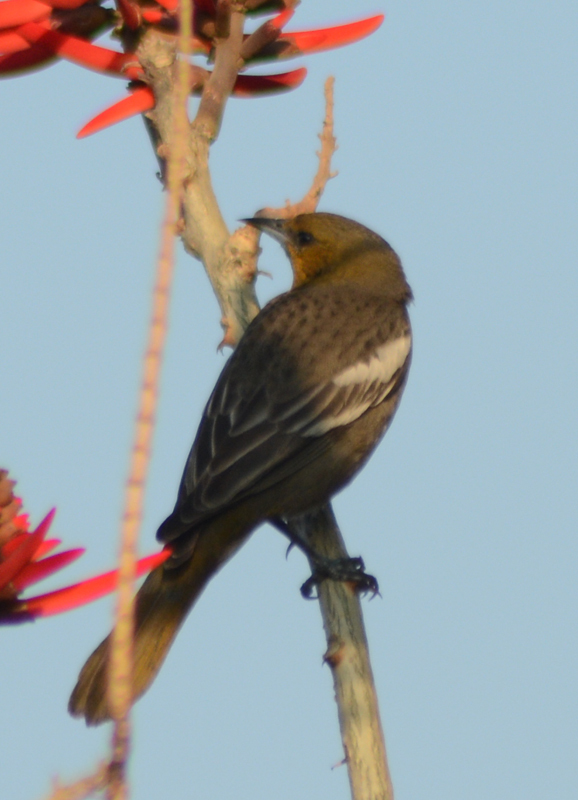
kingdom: Animalia
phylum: Chordata
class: Aves
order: Passeriformes
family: Icteridae
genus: Icterus
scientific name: Icterus abeillei
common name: Black-backed oriole
